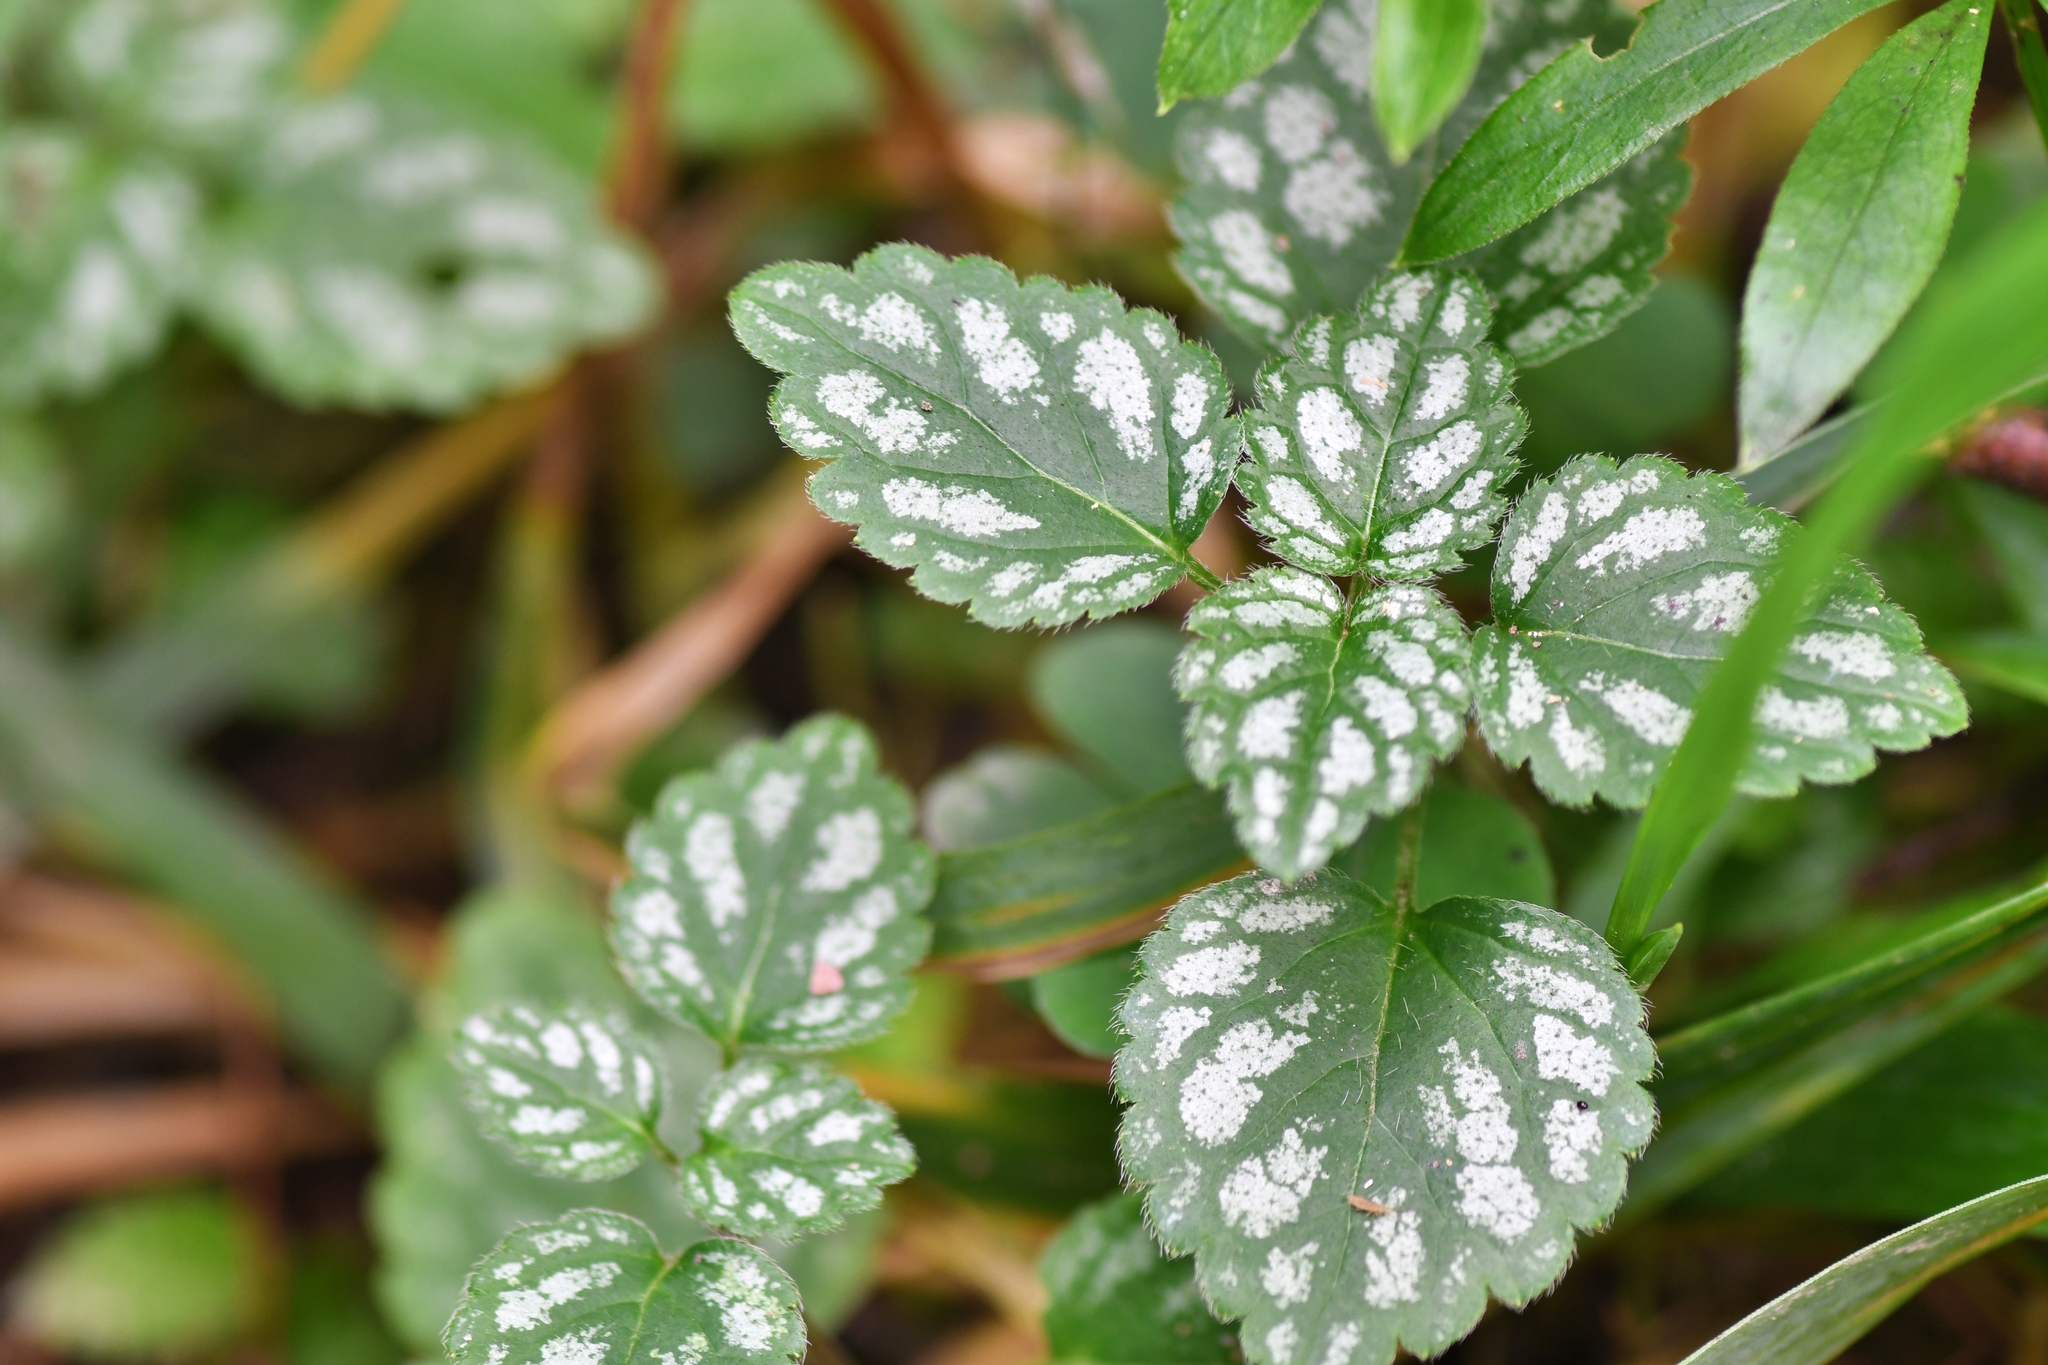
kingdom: Plantae
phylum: Tracheophyta
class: Magnoliopsida
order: Lamiales
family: Lamiaceae
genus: Lamium
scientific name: Lamium galeobdolon
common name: Yellow archangel
